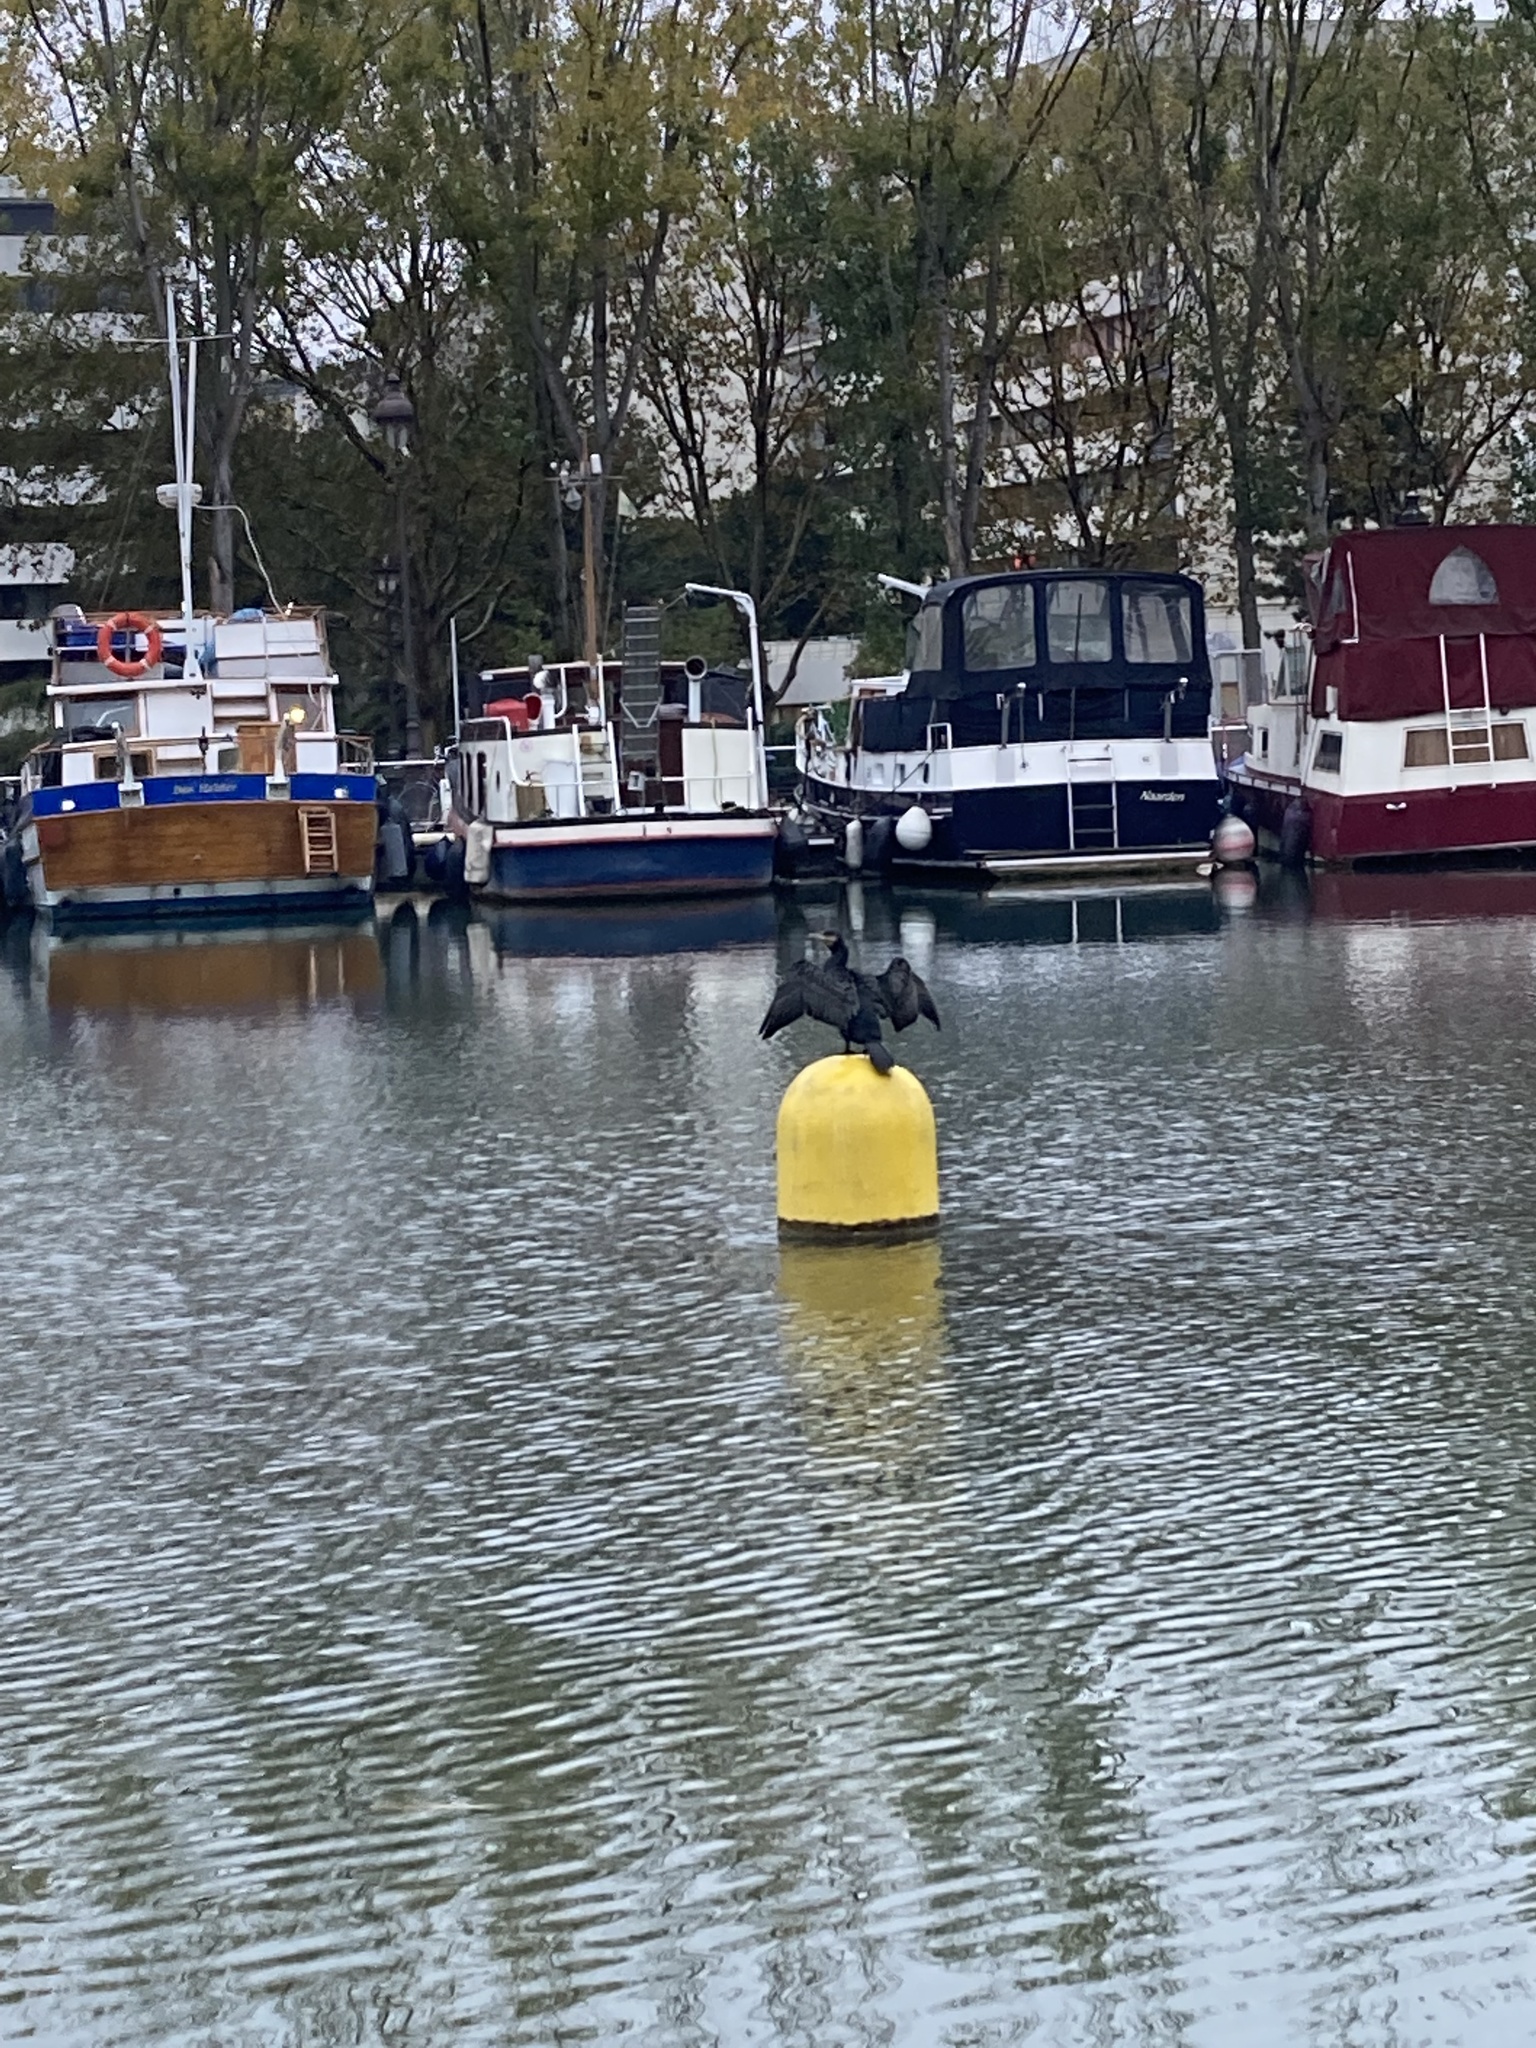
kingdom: Animalia
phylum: Chordata
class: Aves
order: Suliformes
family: Phalacrocoracidae
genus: Phalacrocorax
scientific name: Phalacrocorax carbo
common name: Great cormorant
